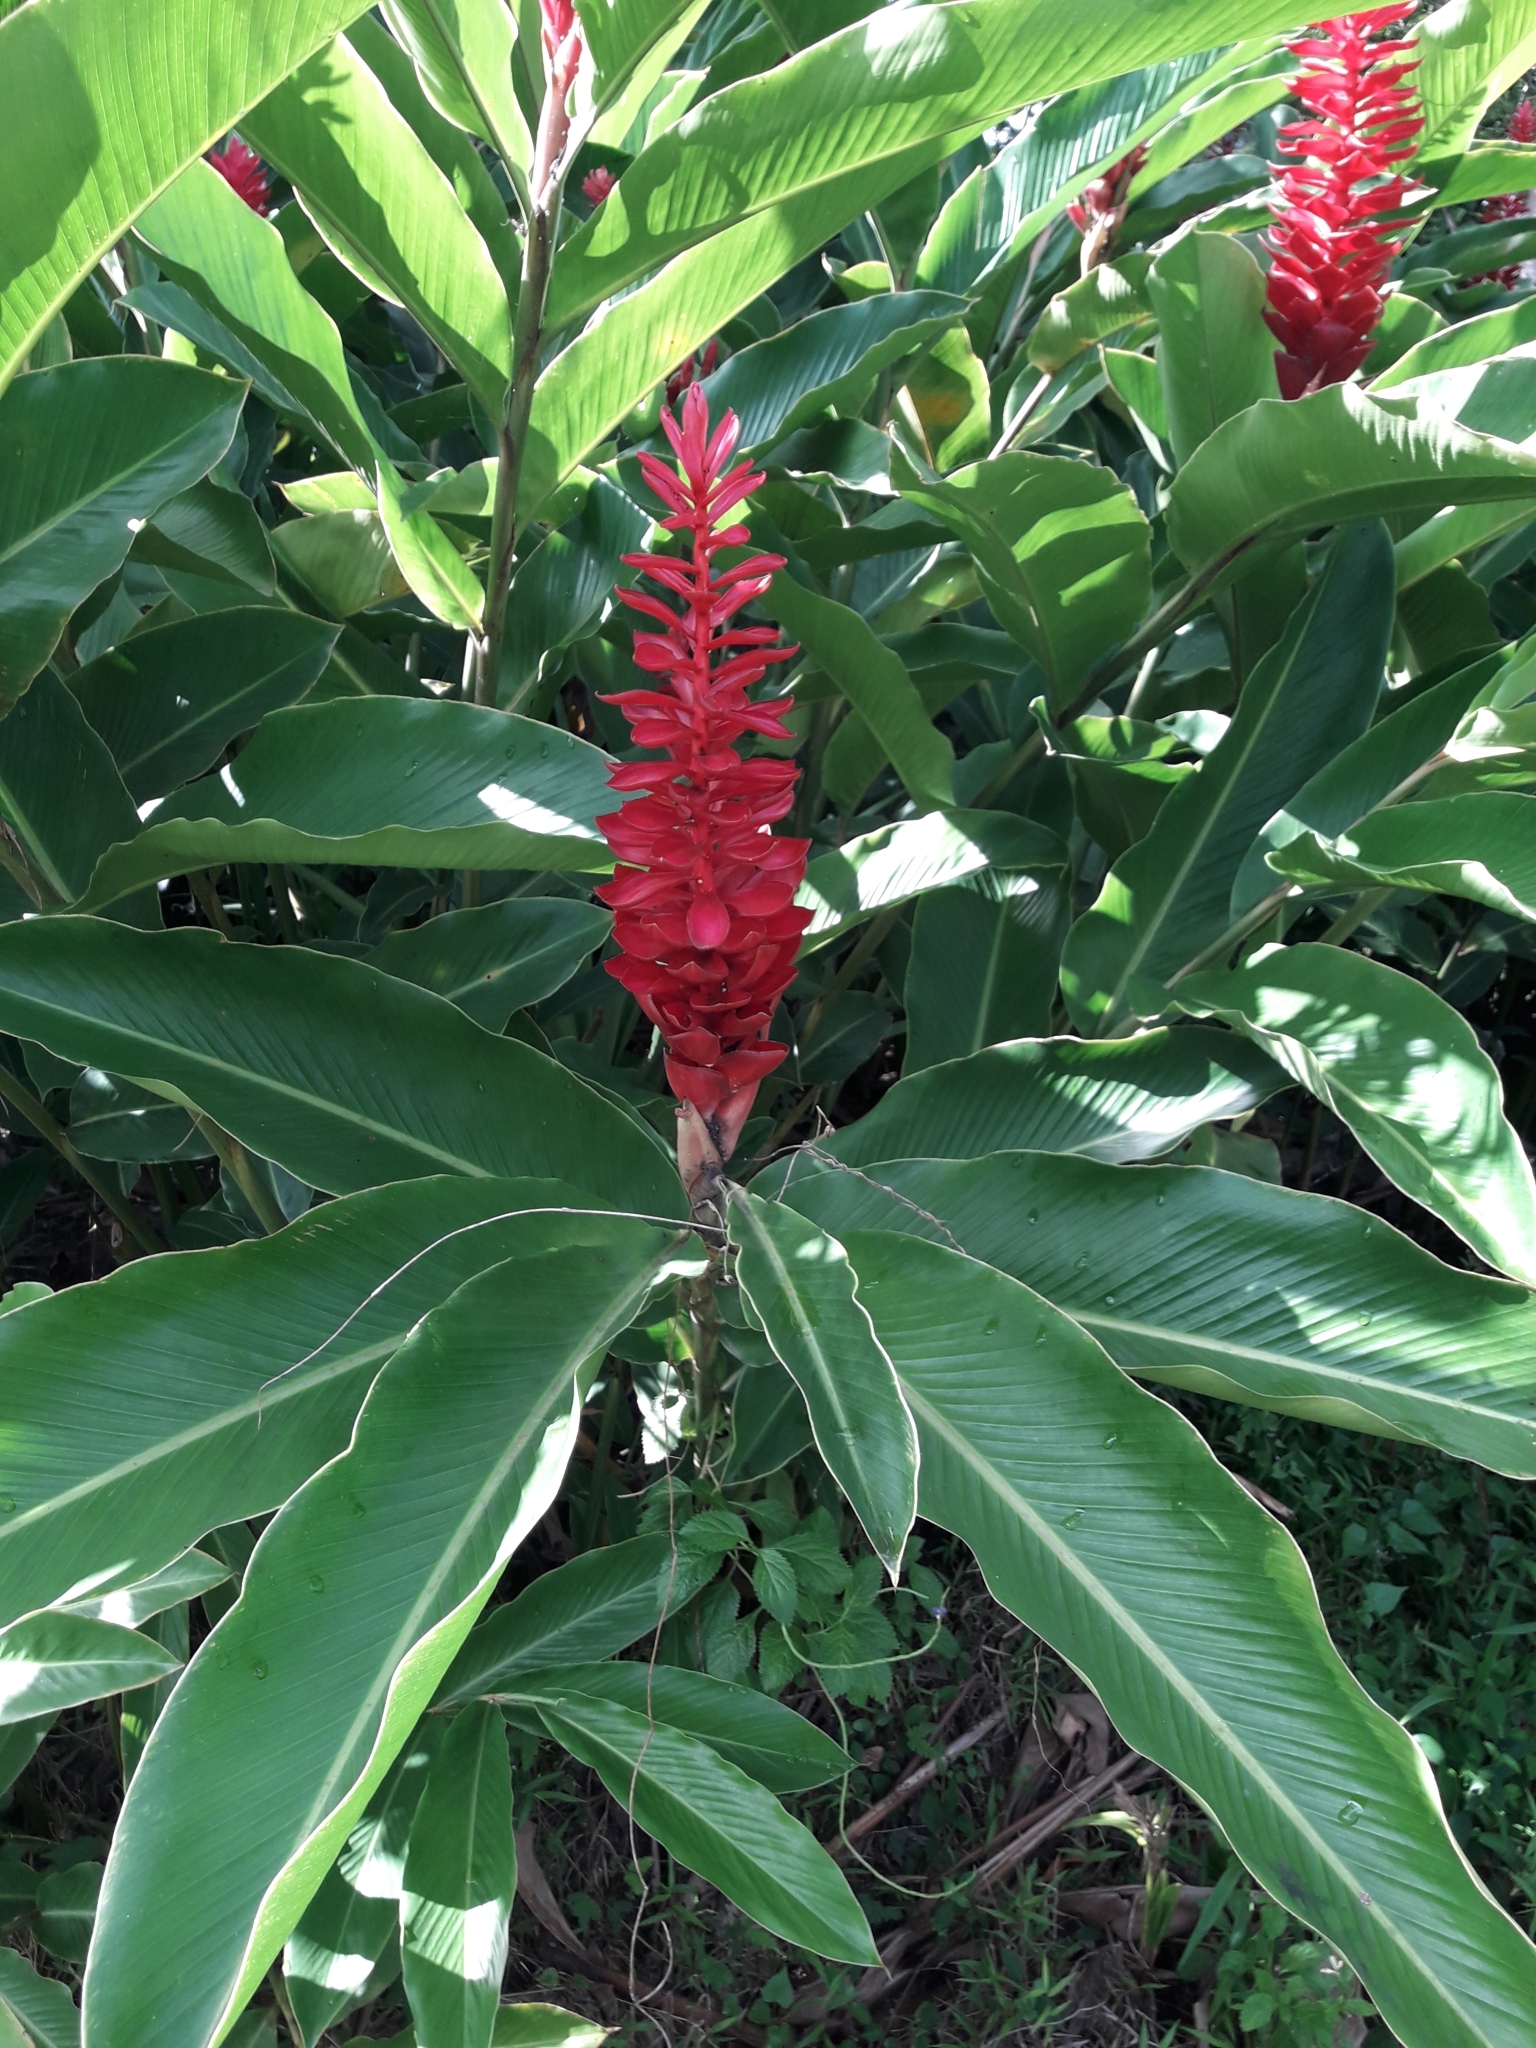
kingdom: Plantae
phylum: Tracheophyta
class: Liliopsida
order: Zingiberales
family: Zingiberaceae
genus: Alpinia
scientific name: Alpinia purpurata
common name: Red ginger
